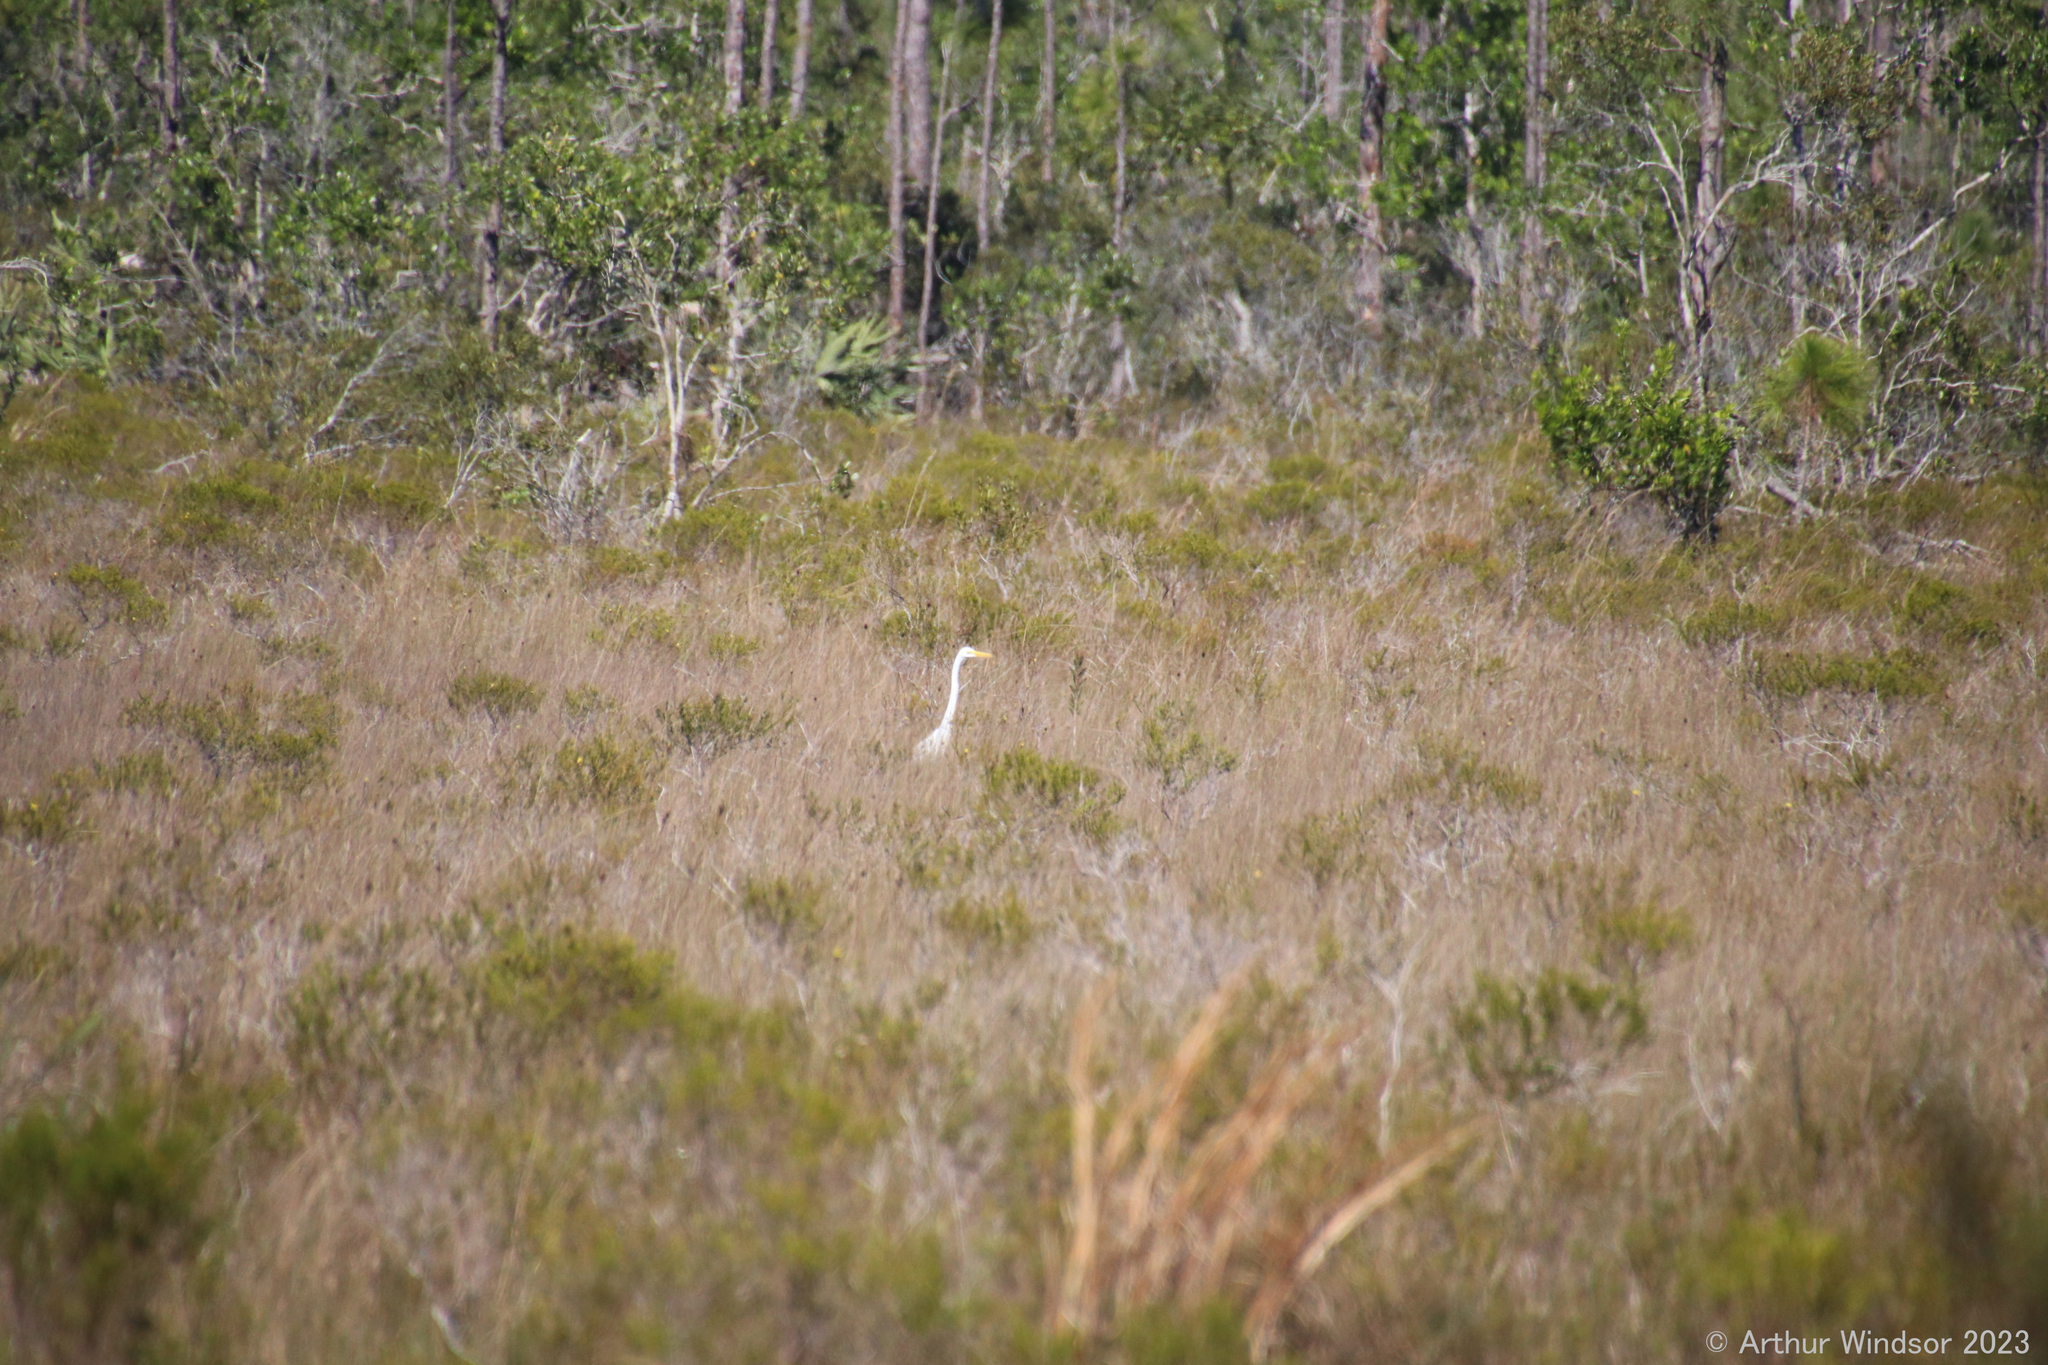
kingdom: Animalia
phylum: Chordata
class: Aves
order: Pelecaniformes
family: Ardeidae
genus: Ardea
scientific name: Ardea alba
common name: Great egret
